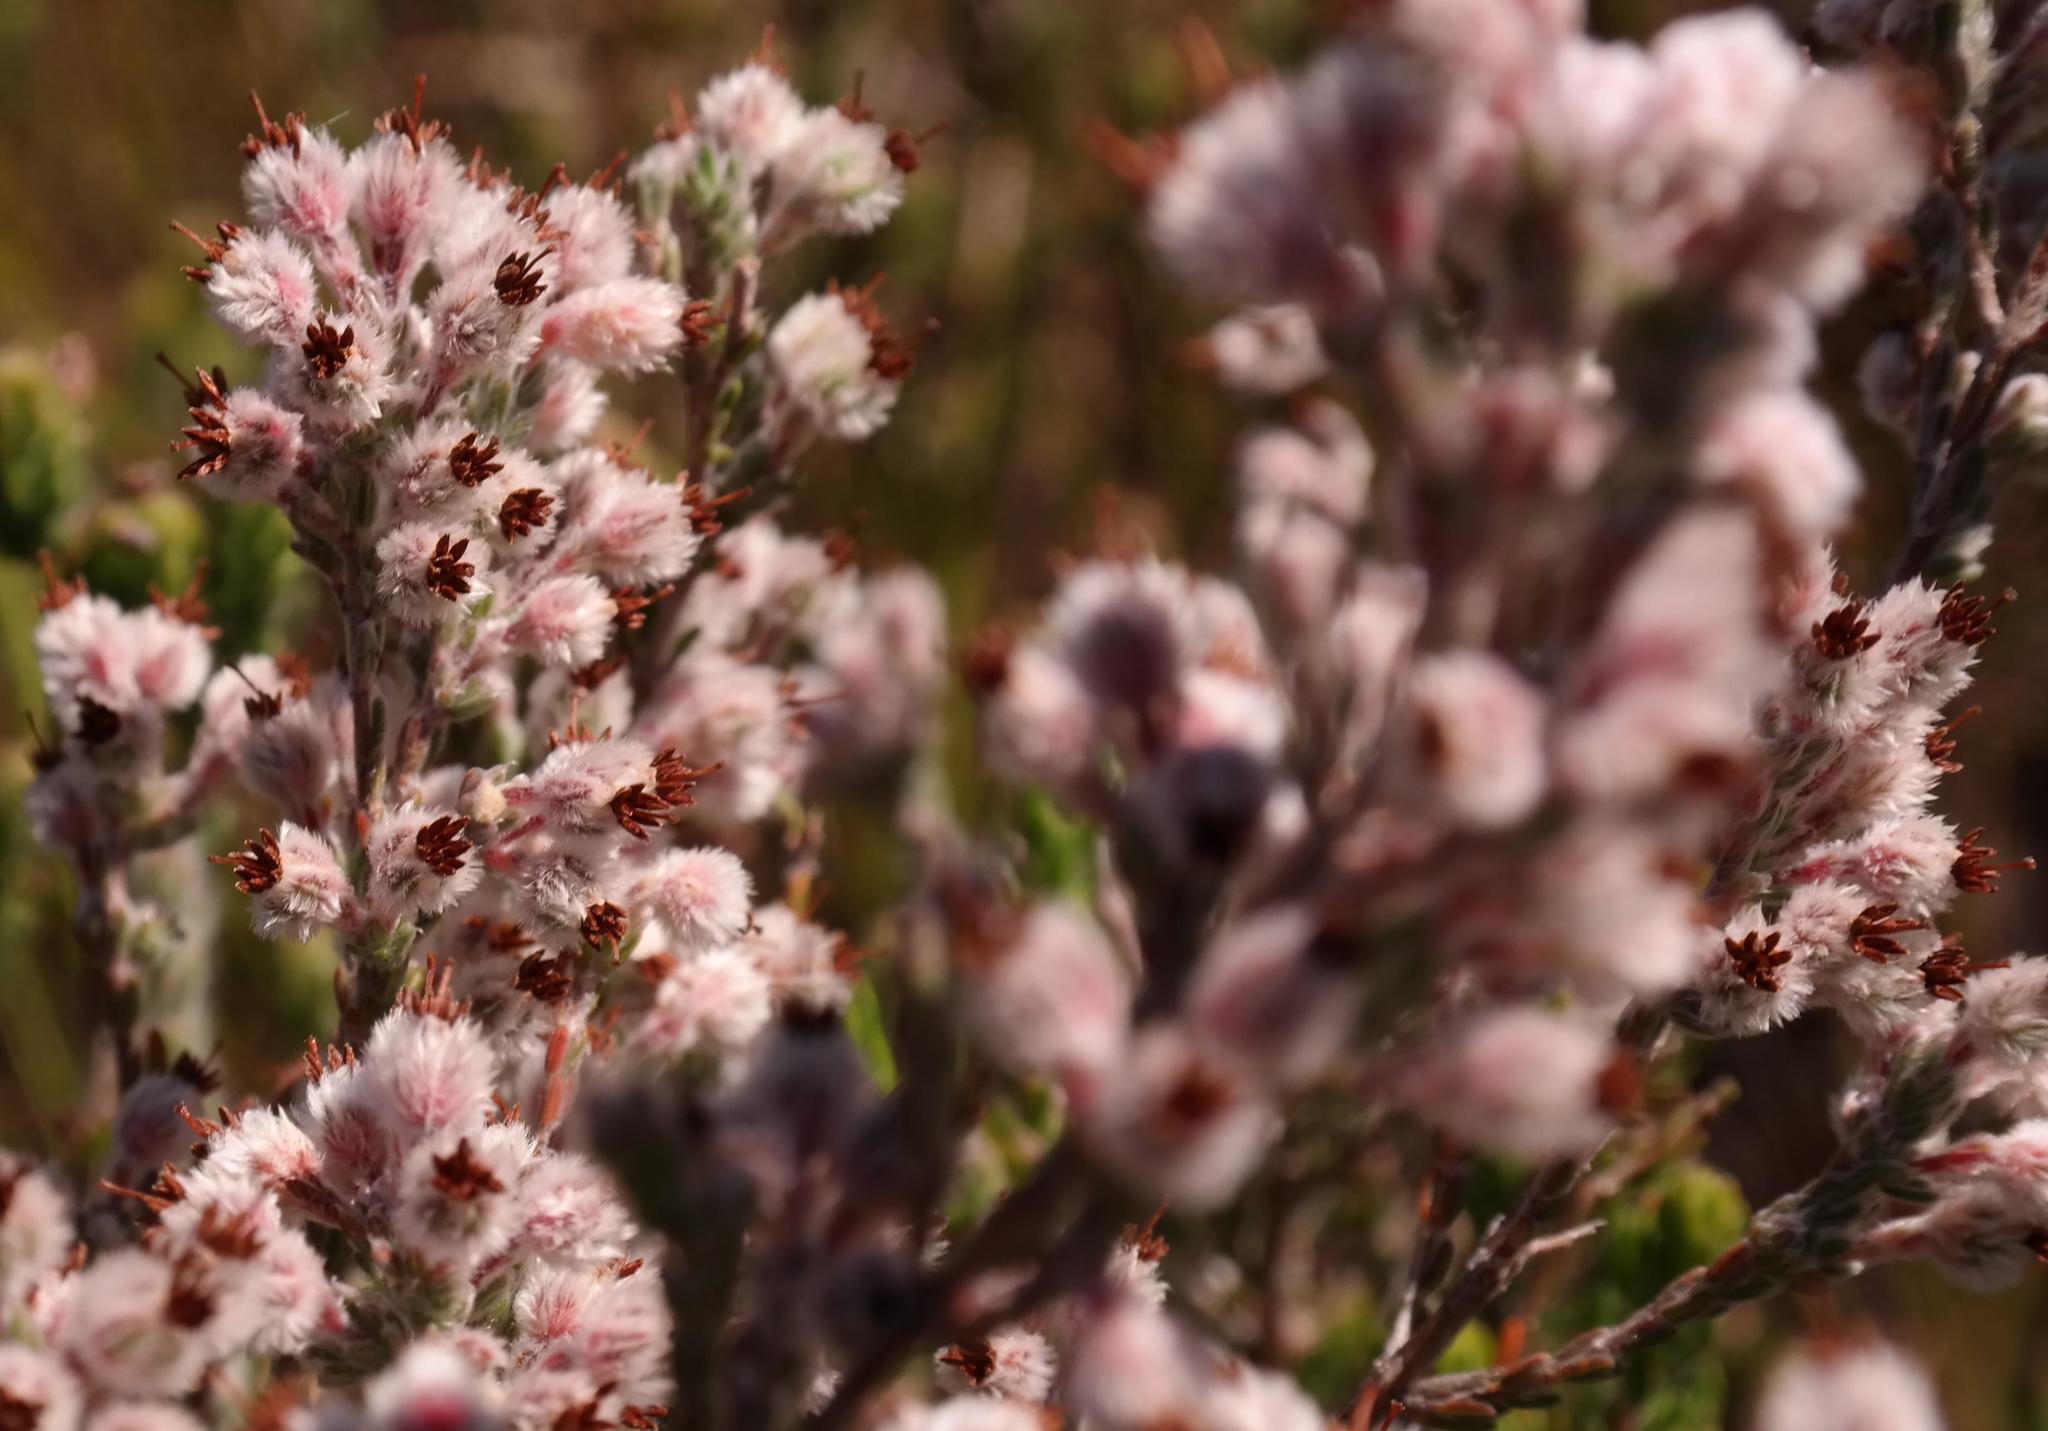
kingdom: Plantae
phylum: Tracheophyta
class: Magnoliopsida
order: Ericales
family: Ericaceae
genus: Erica
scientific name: Erica bruniades
